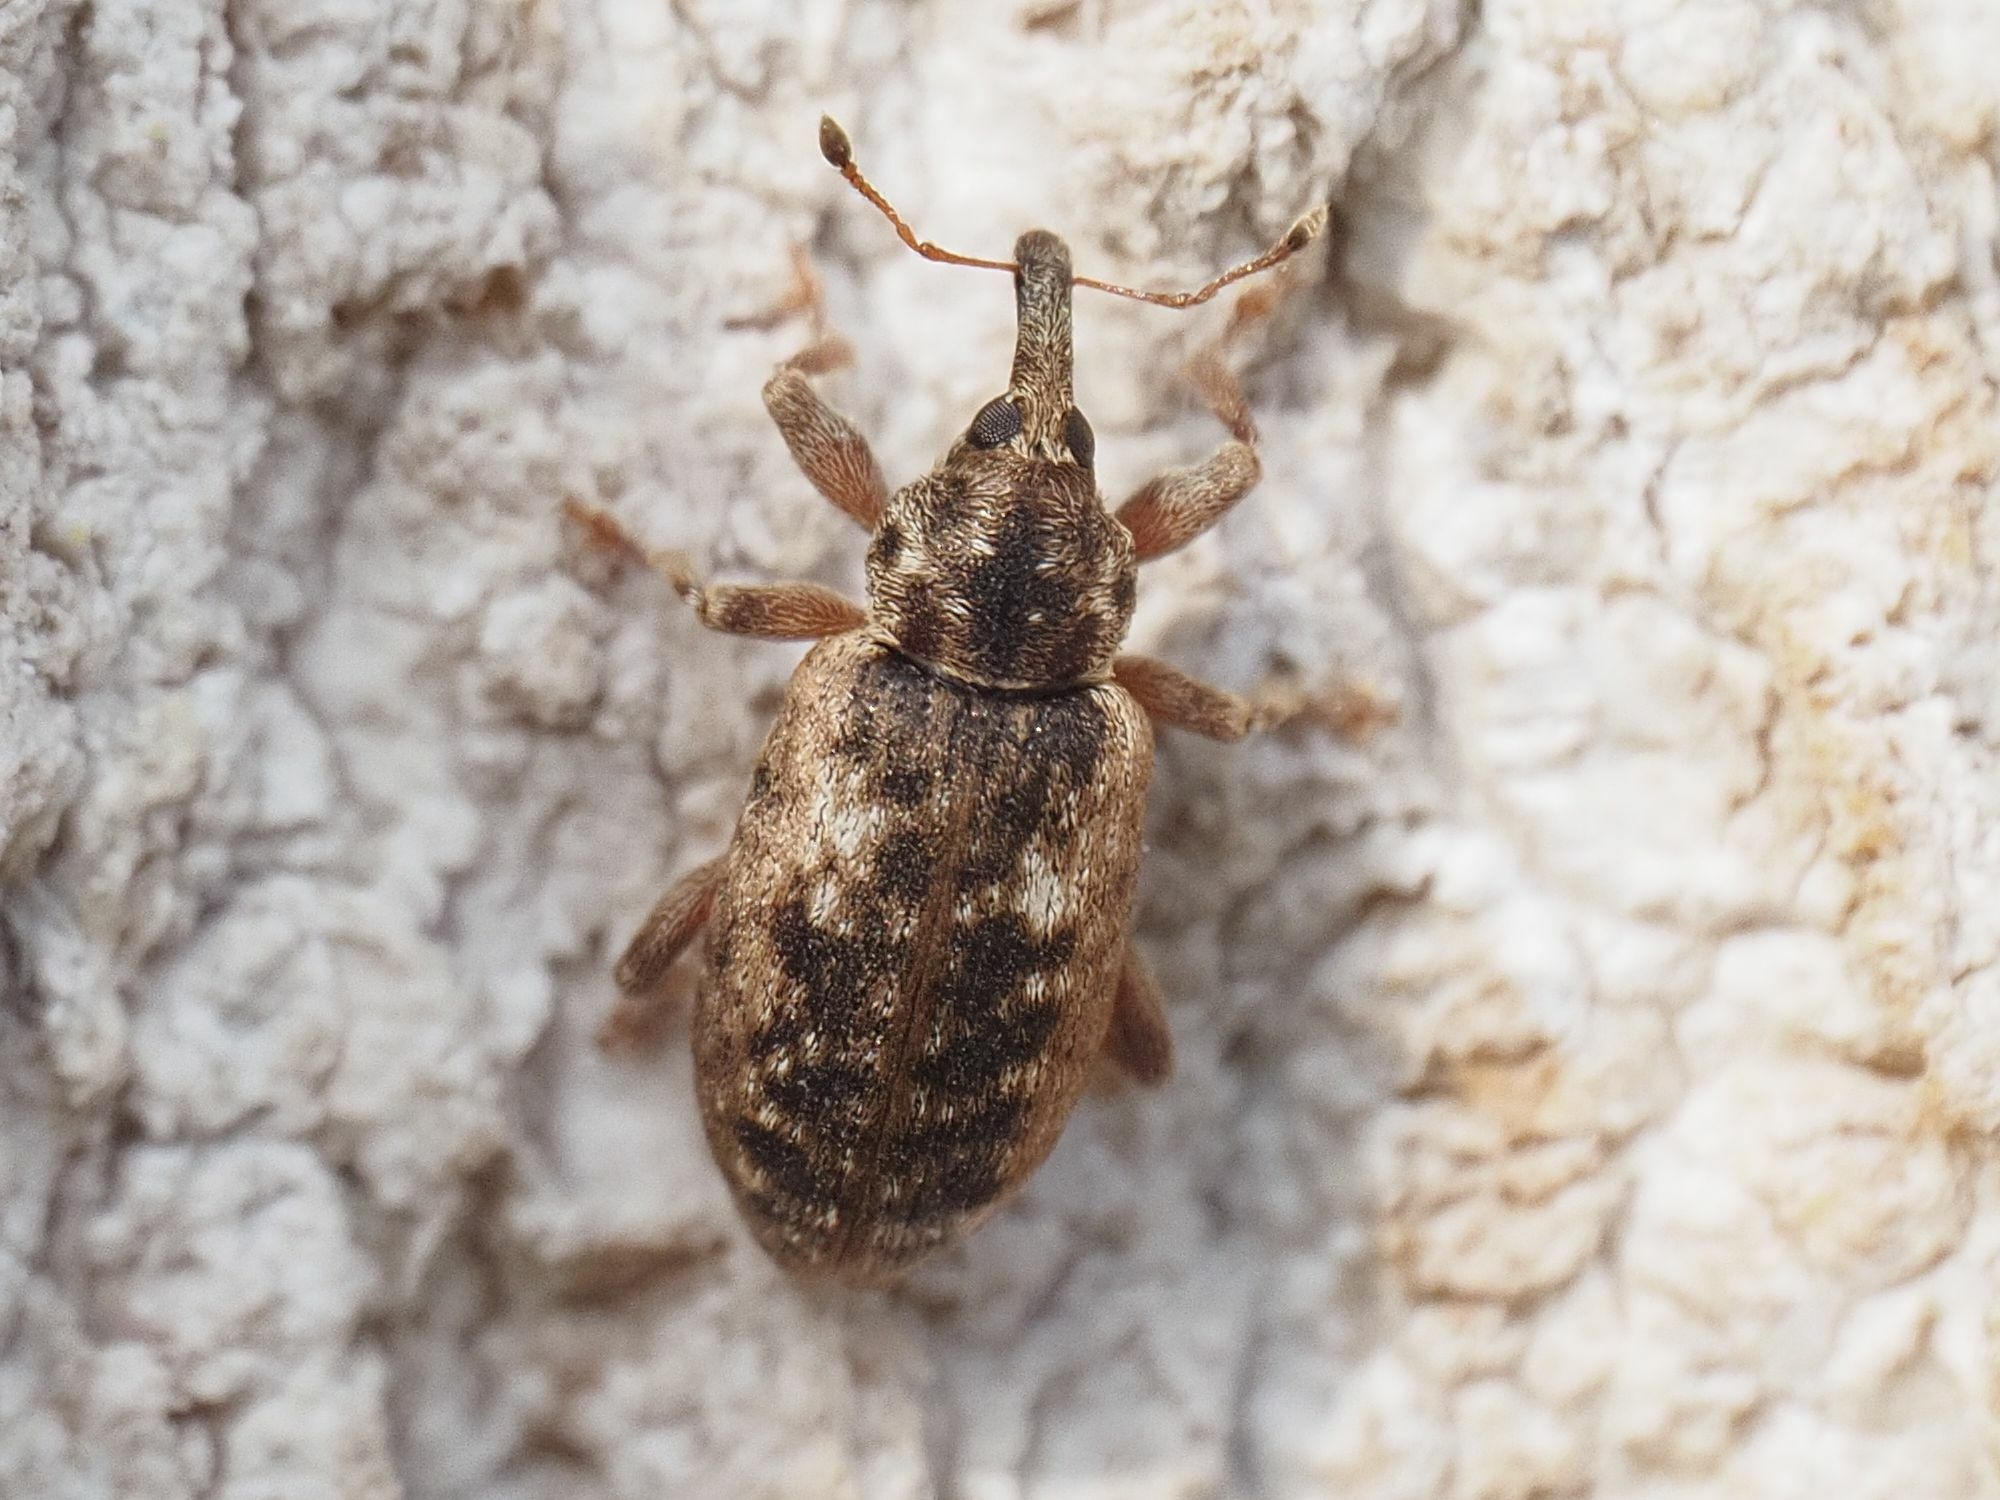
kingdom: Animalia
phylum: Arthropoda
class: Insecta
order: Coleoptera
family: Curculionidae
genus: Dorytomus
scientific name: Dorytomus ictor
